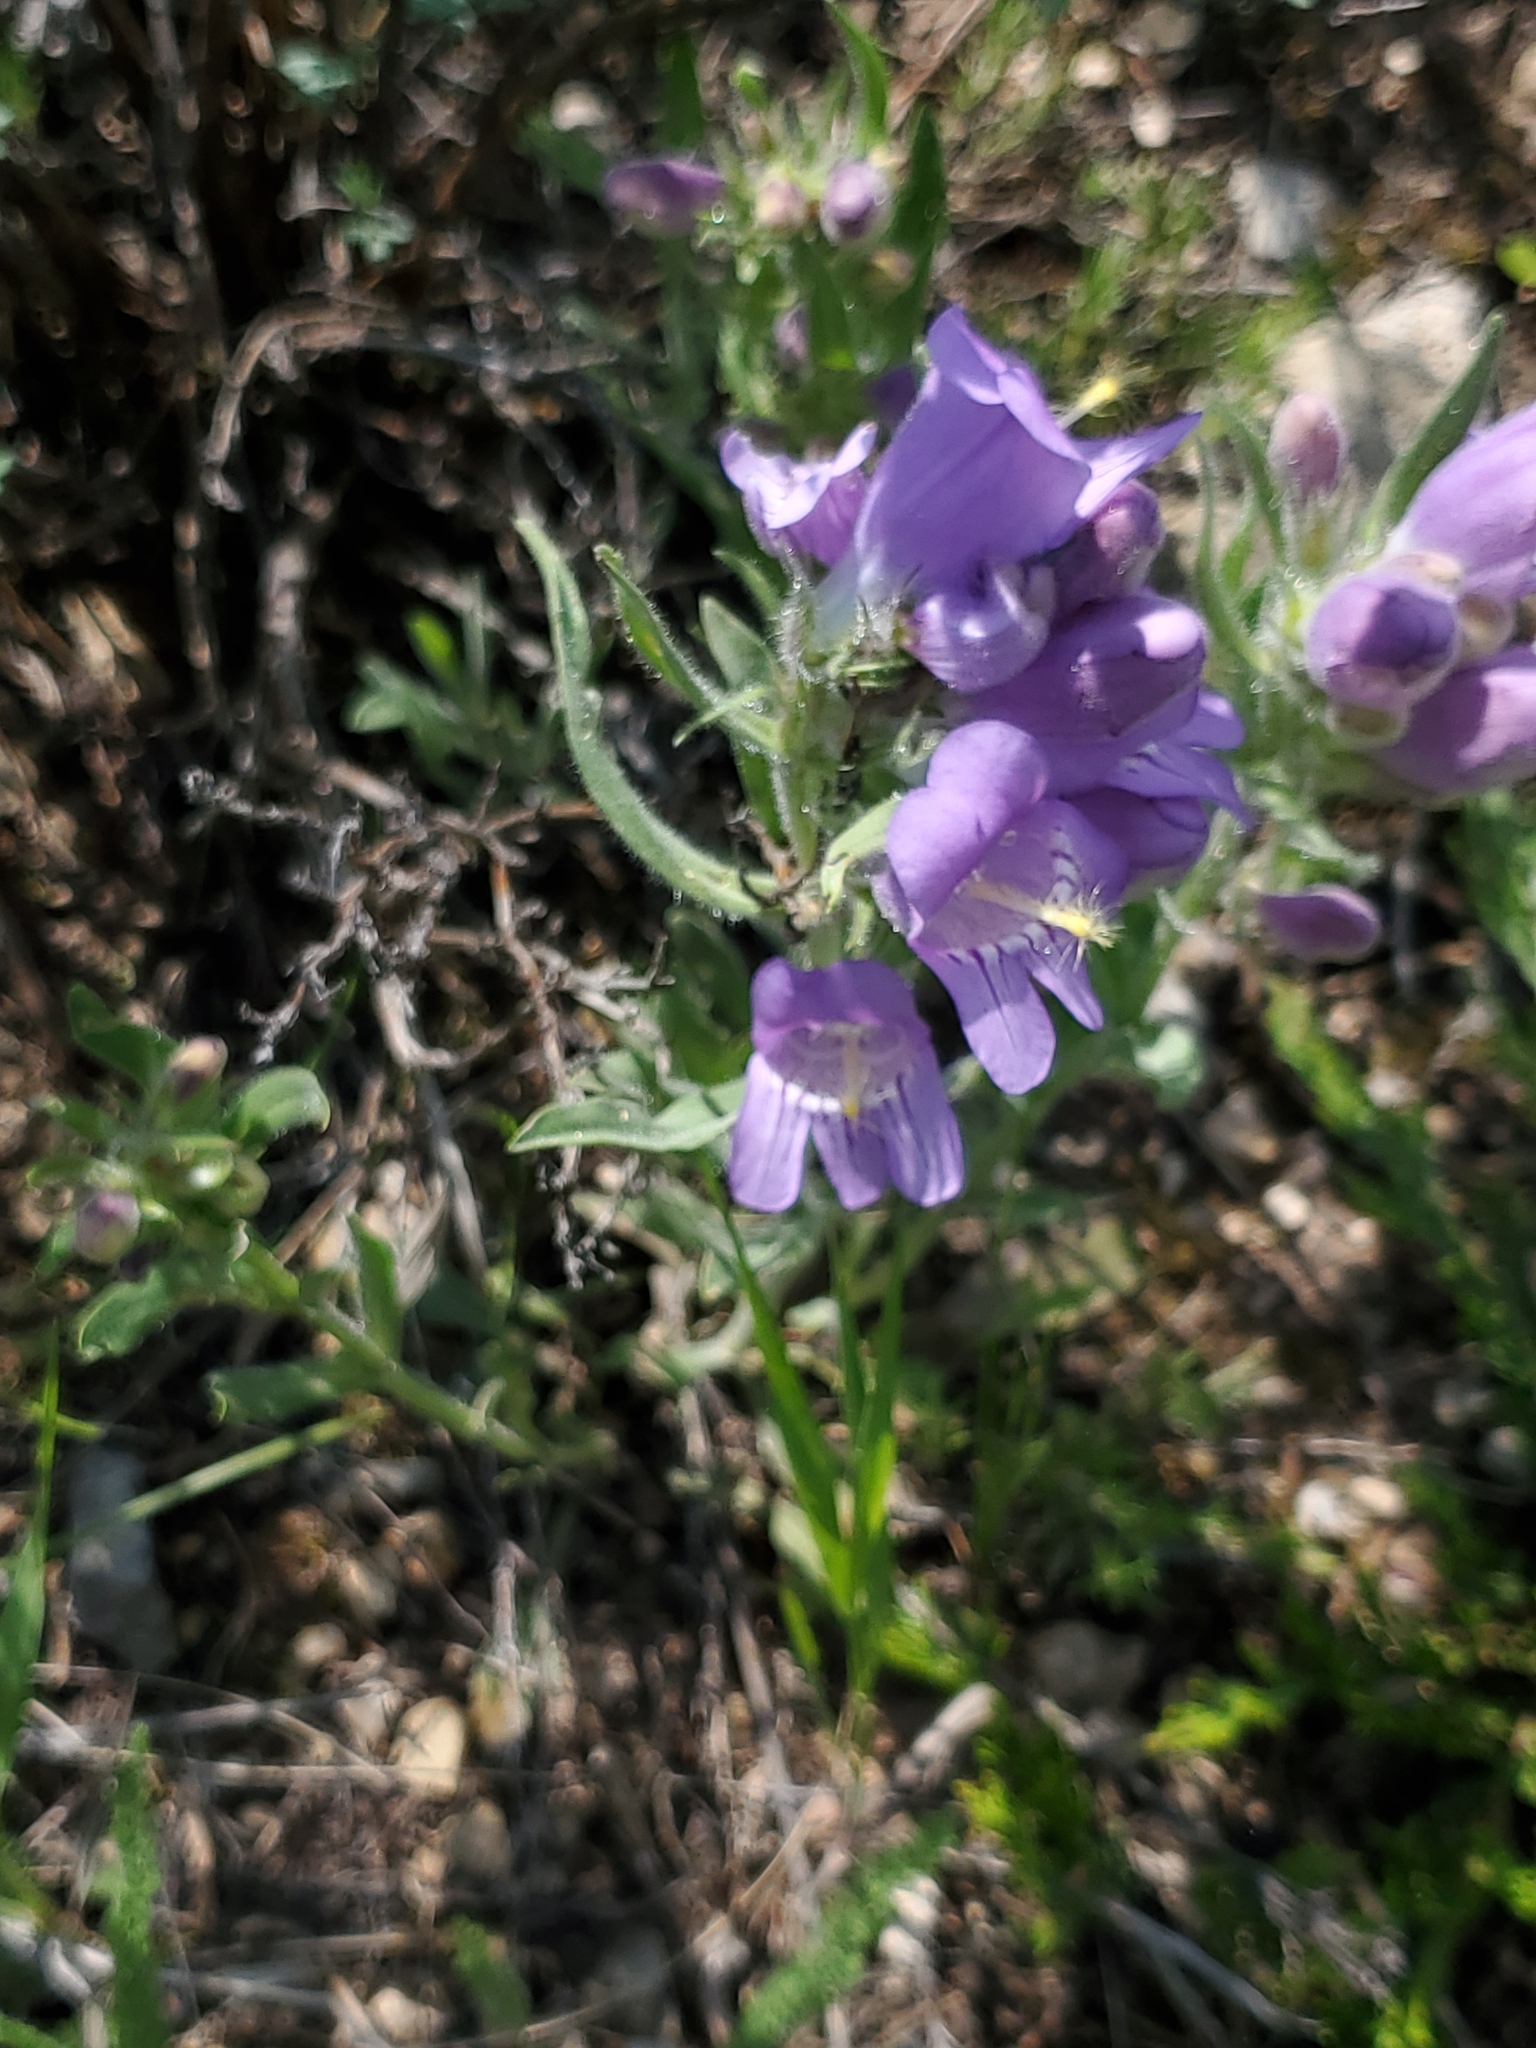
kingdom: Plantae
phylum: Tracheophyta
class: Magnoliopsida
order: Lamiales
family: Plantaginaceae
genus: Penstemon
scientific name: Penstemon eriantherus
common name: Crested beardtongue
